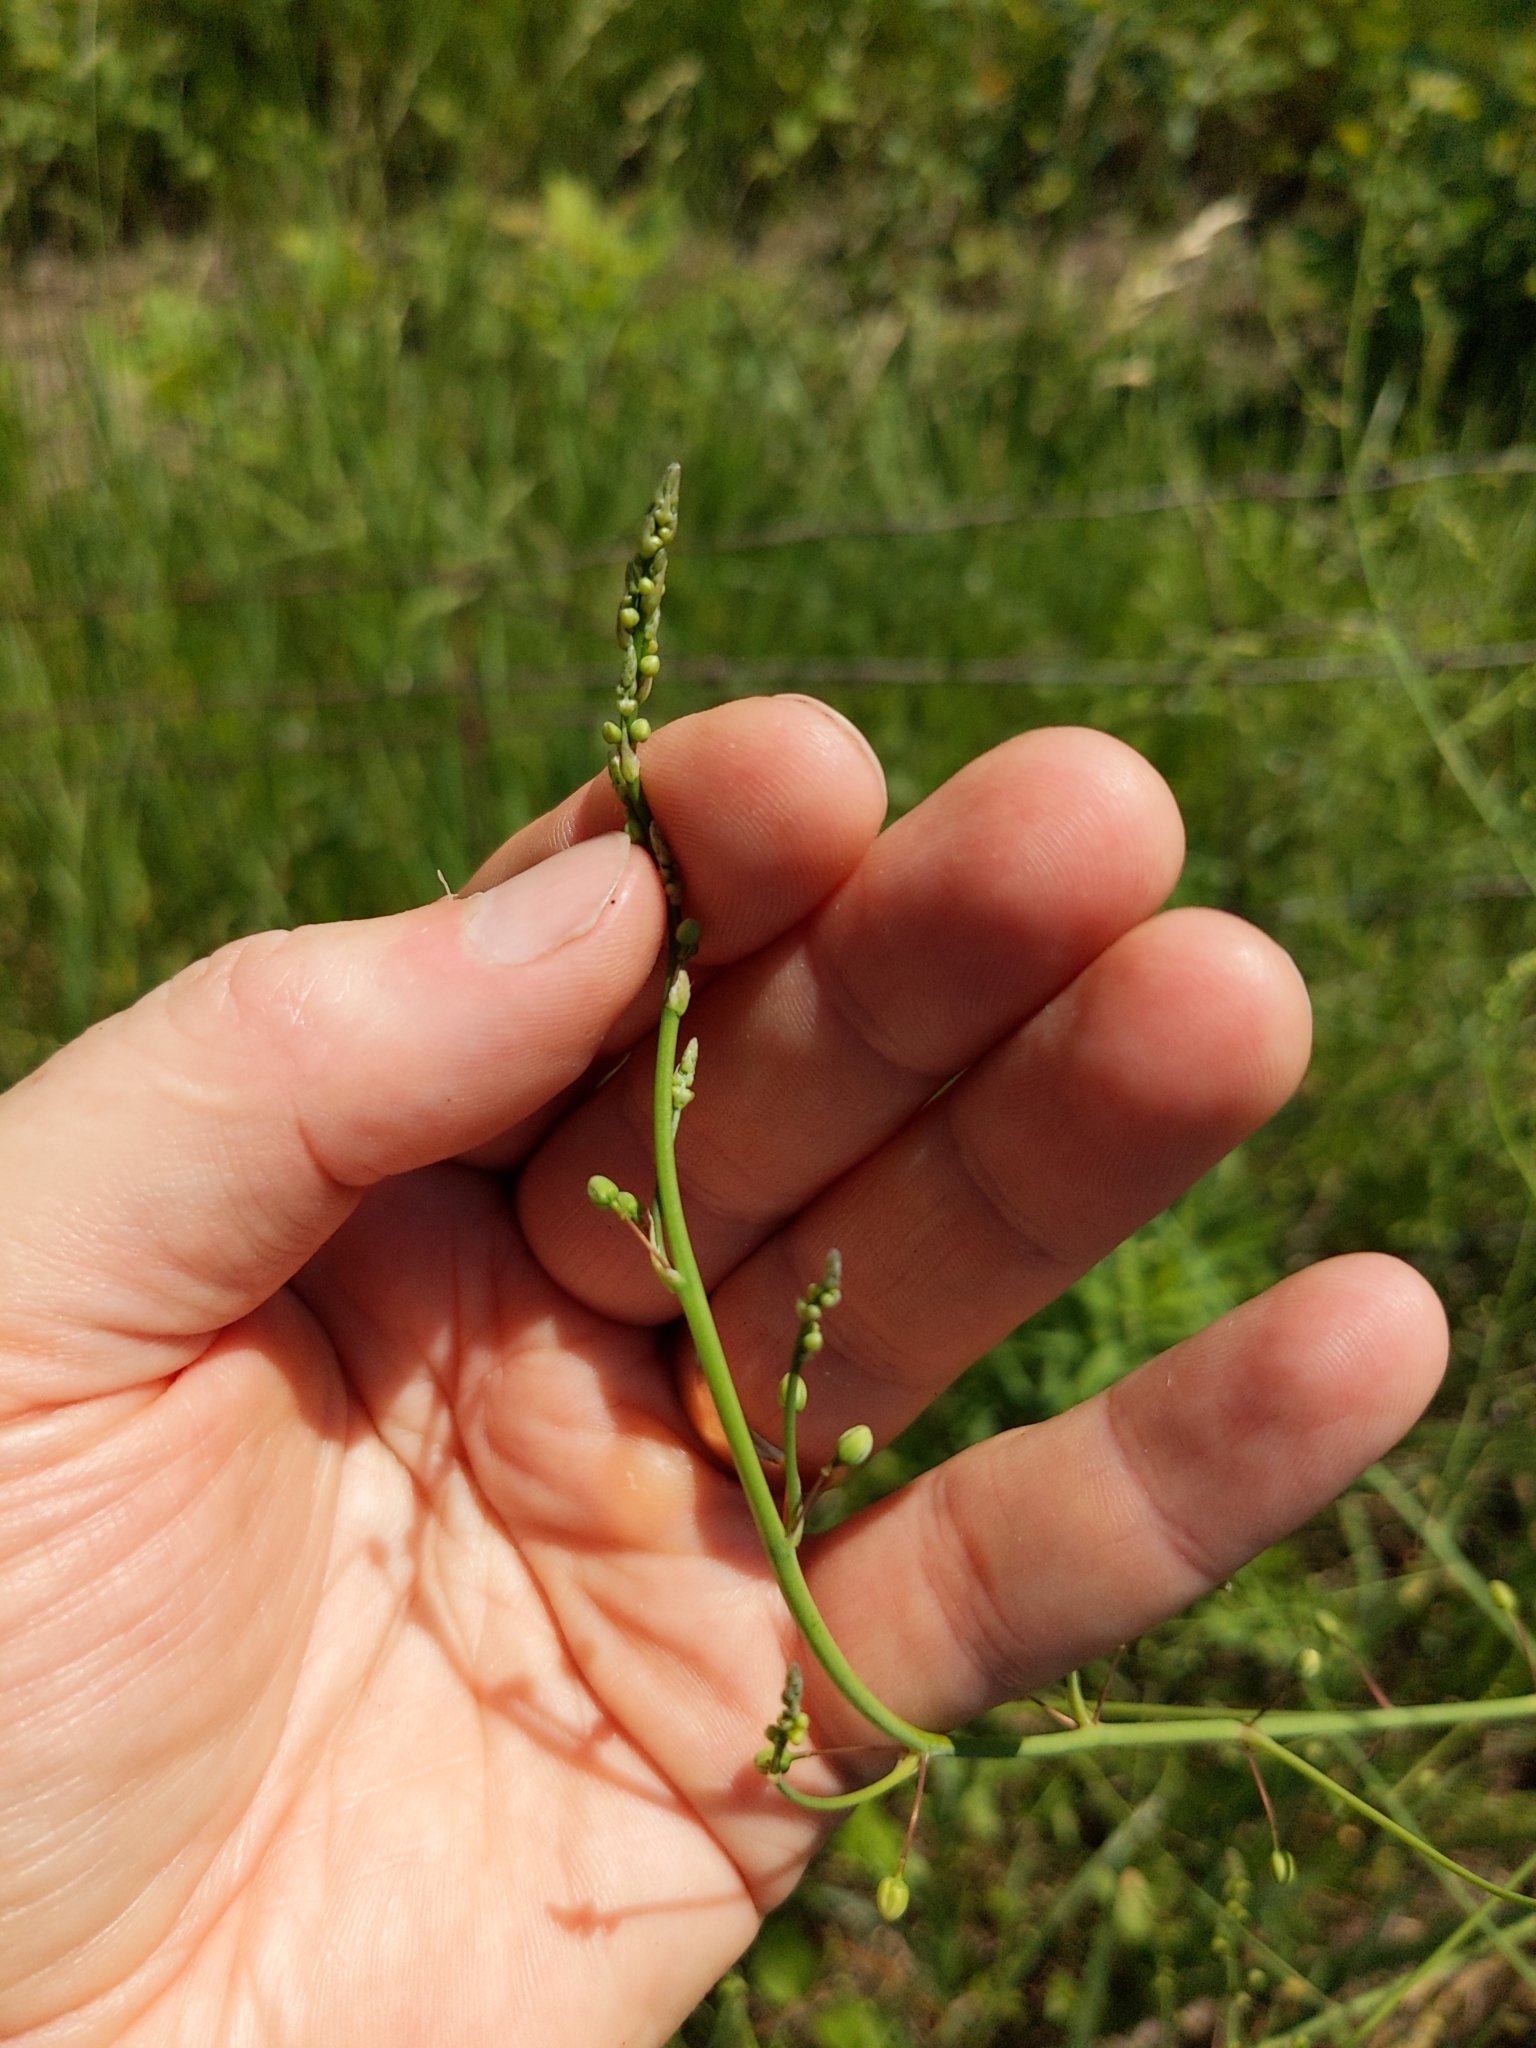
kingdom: Plantae
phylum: Tracheophyta
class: Liliopsida
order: Asparagales
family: Asparagaceae
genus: Asparagus
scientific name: Asparagus officinalis
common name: Garden asparagus
